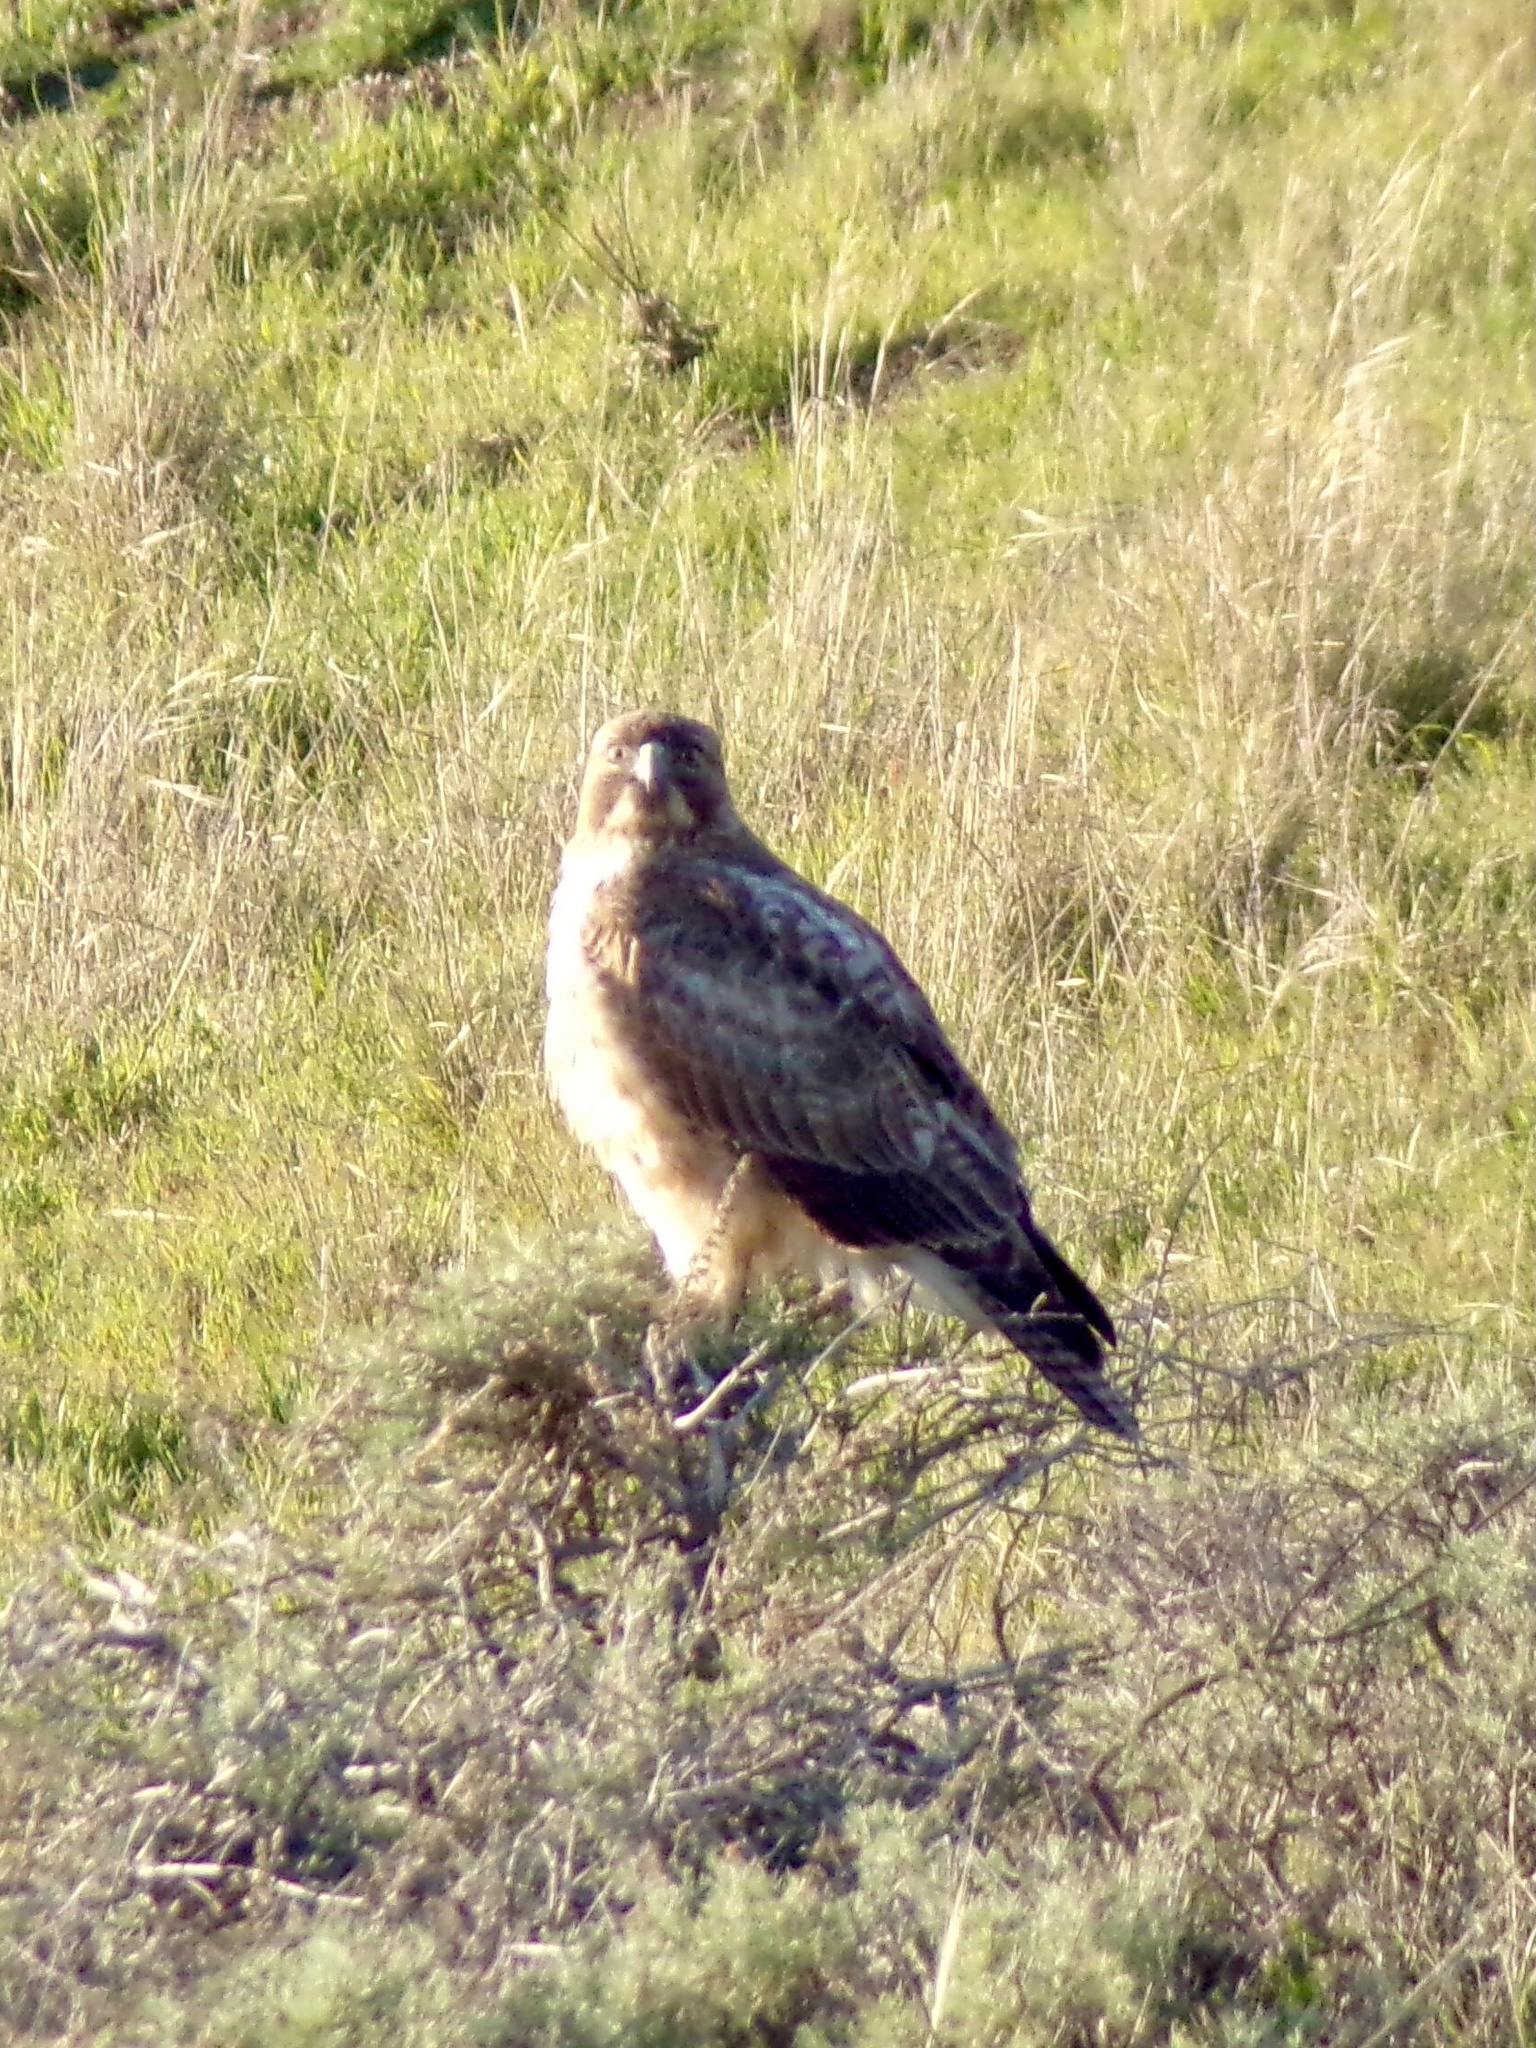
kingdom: Animalia
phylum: Chordata
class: Aves
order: Accipitriformes
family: Accipitridae
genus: Buteo
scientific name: Buteo jamaicensis
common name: Red-tailed hawk
